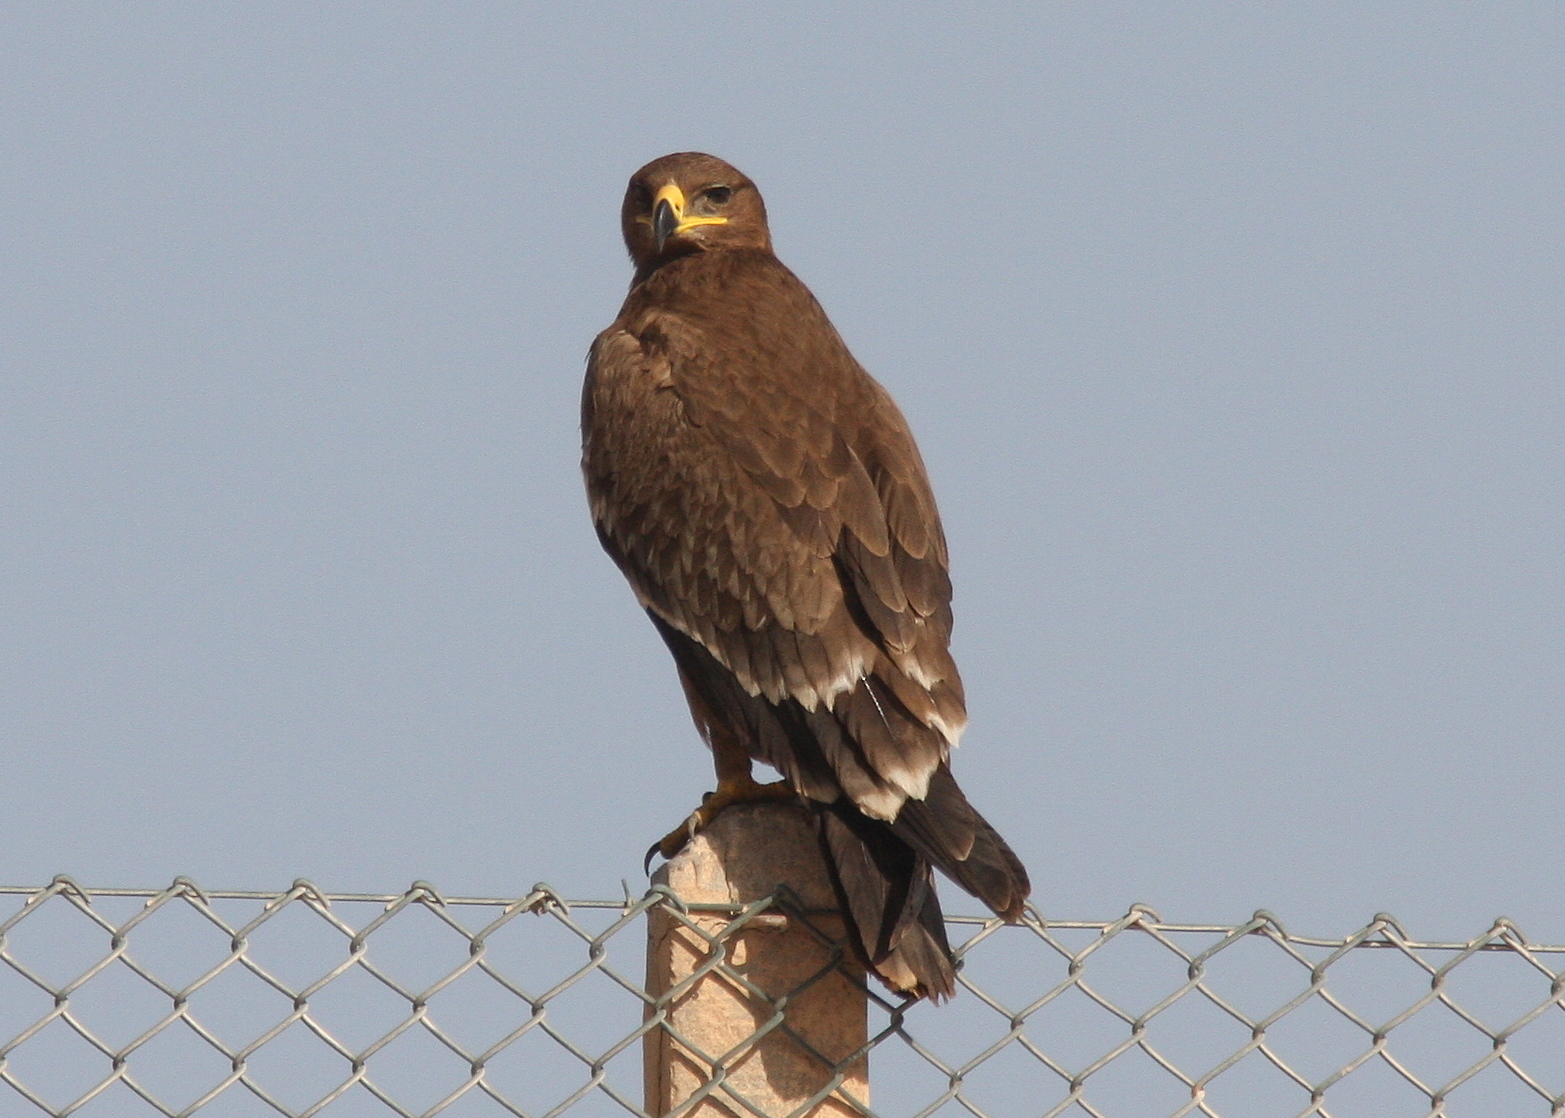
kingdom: Animalia
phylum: Chordata
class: Aves
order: Accipitriformes
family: Accipitridae
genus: Aquila
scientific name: Aquila nipalensis
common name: Steppe eagle
